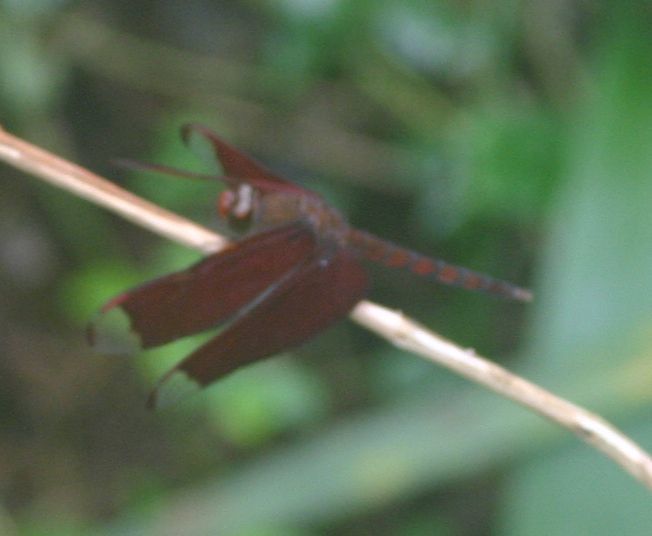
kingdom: Animalia
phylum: Arthropoda
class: Insecta
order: Odonata
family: Libellulidae
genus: Neurothemis
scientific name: Neurothemis fulvia
